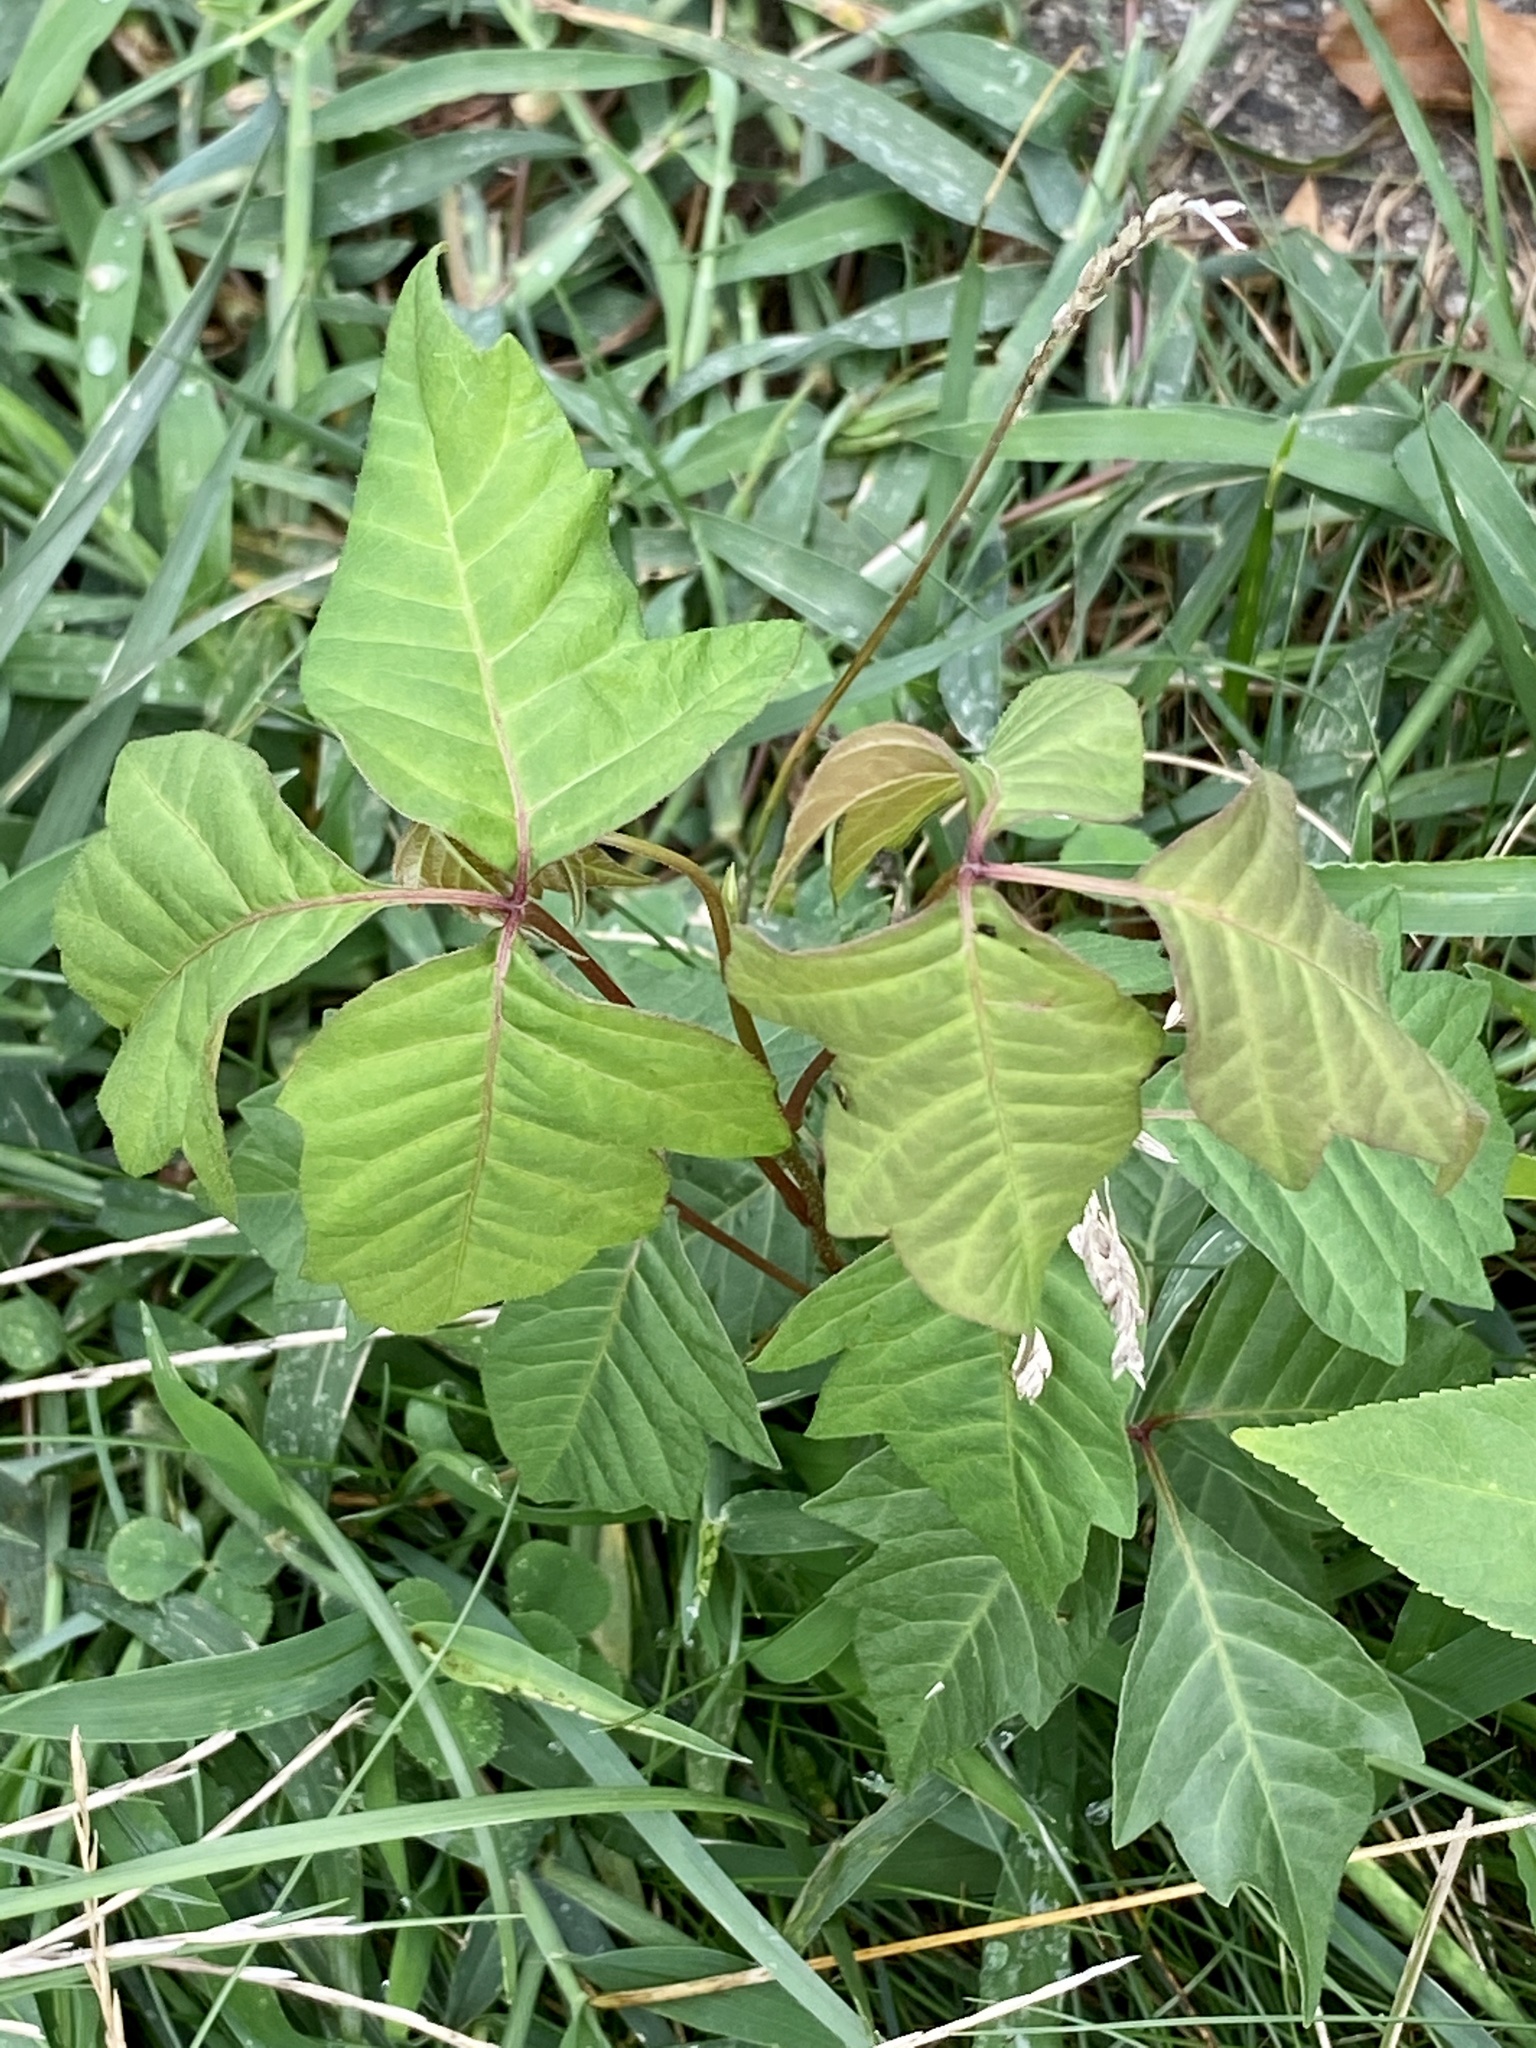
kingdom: Plantae
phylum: Tracheophyta
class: Magnoliopsida
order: Sapindales
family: Anacardiaceae
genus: Toxicodendron
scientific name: Toxicodendron radicans
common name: Poison ivy
